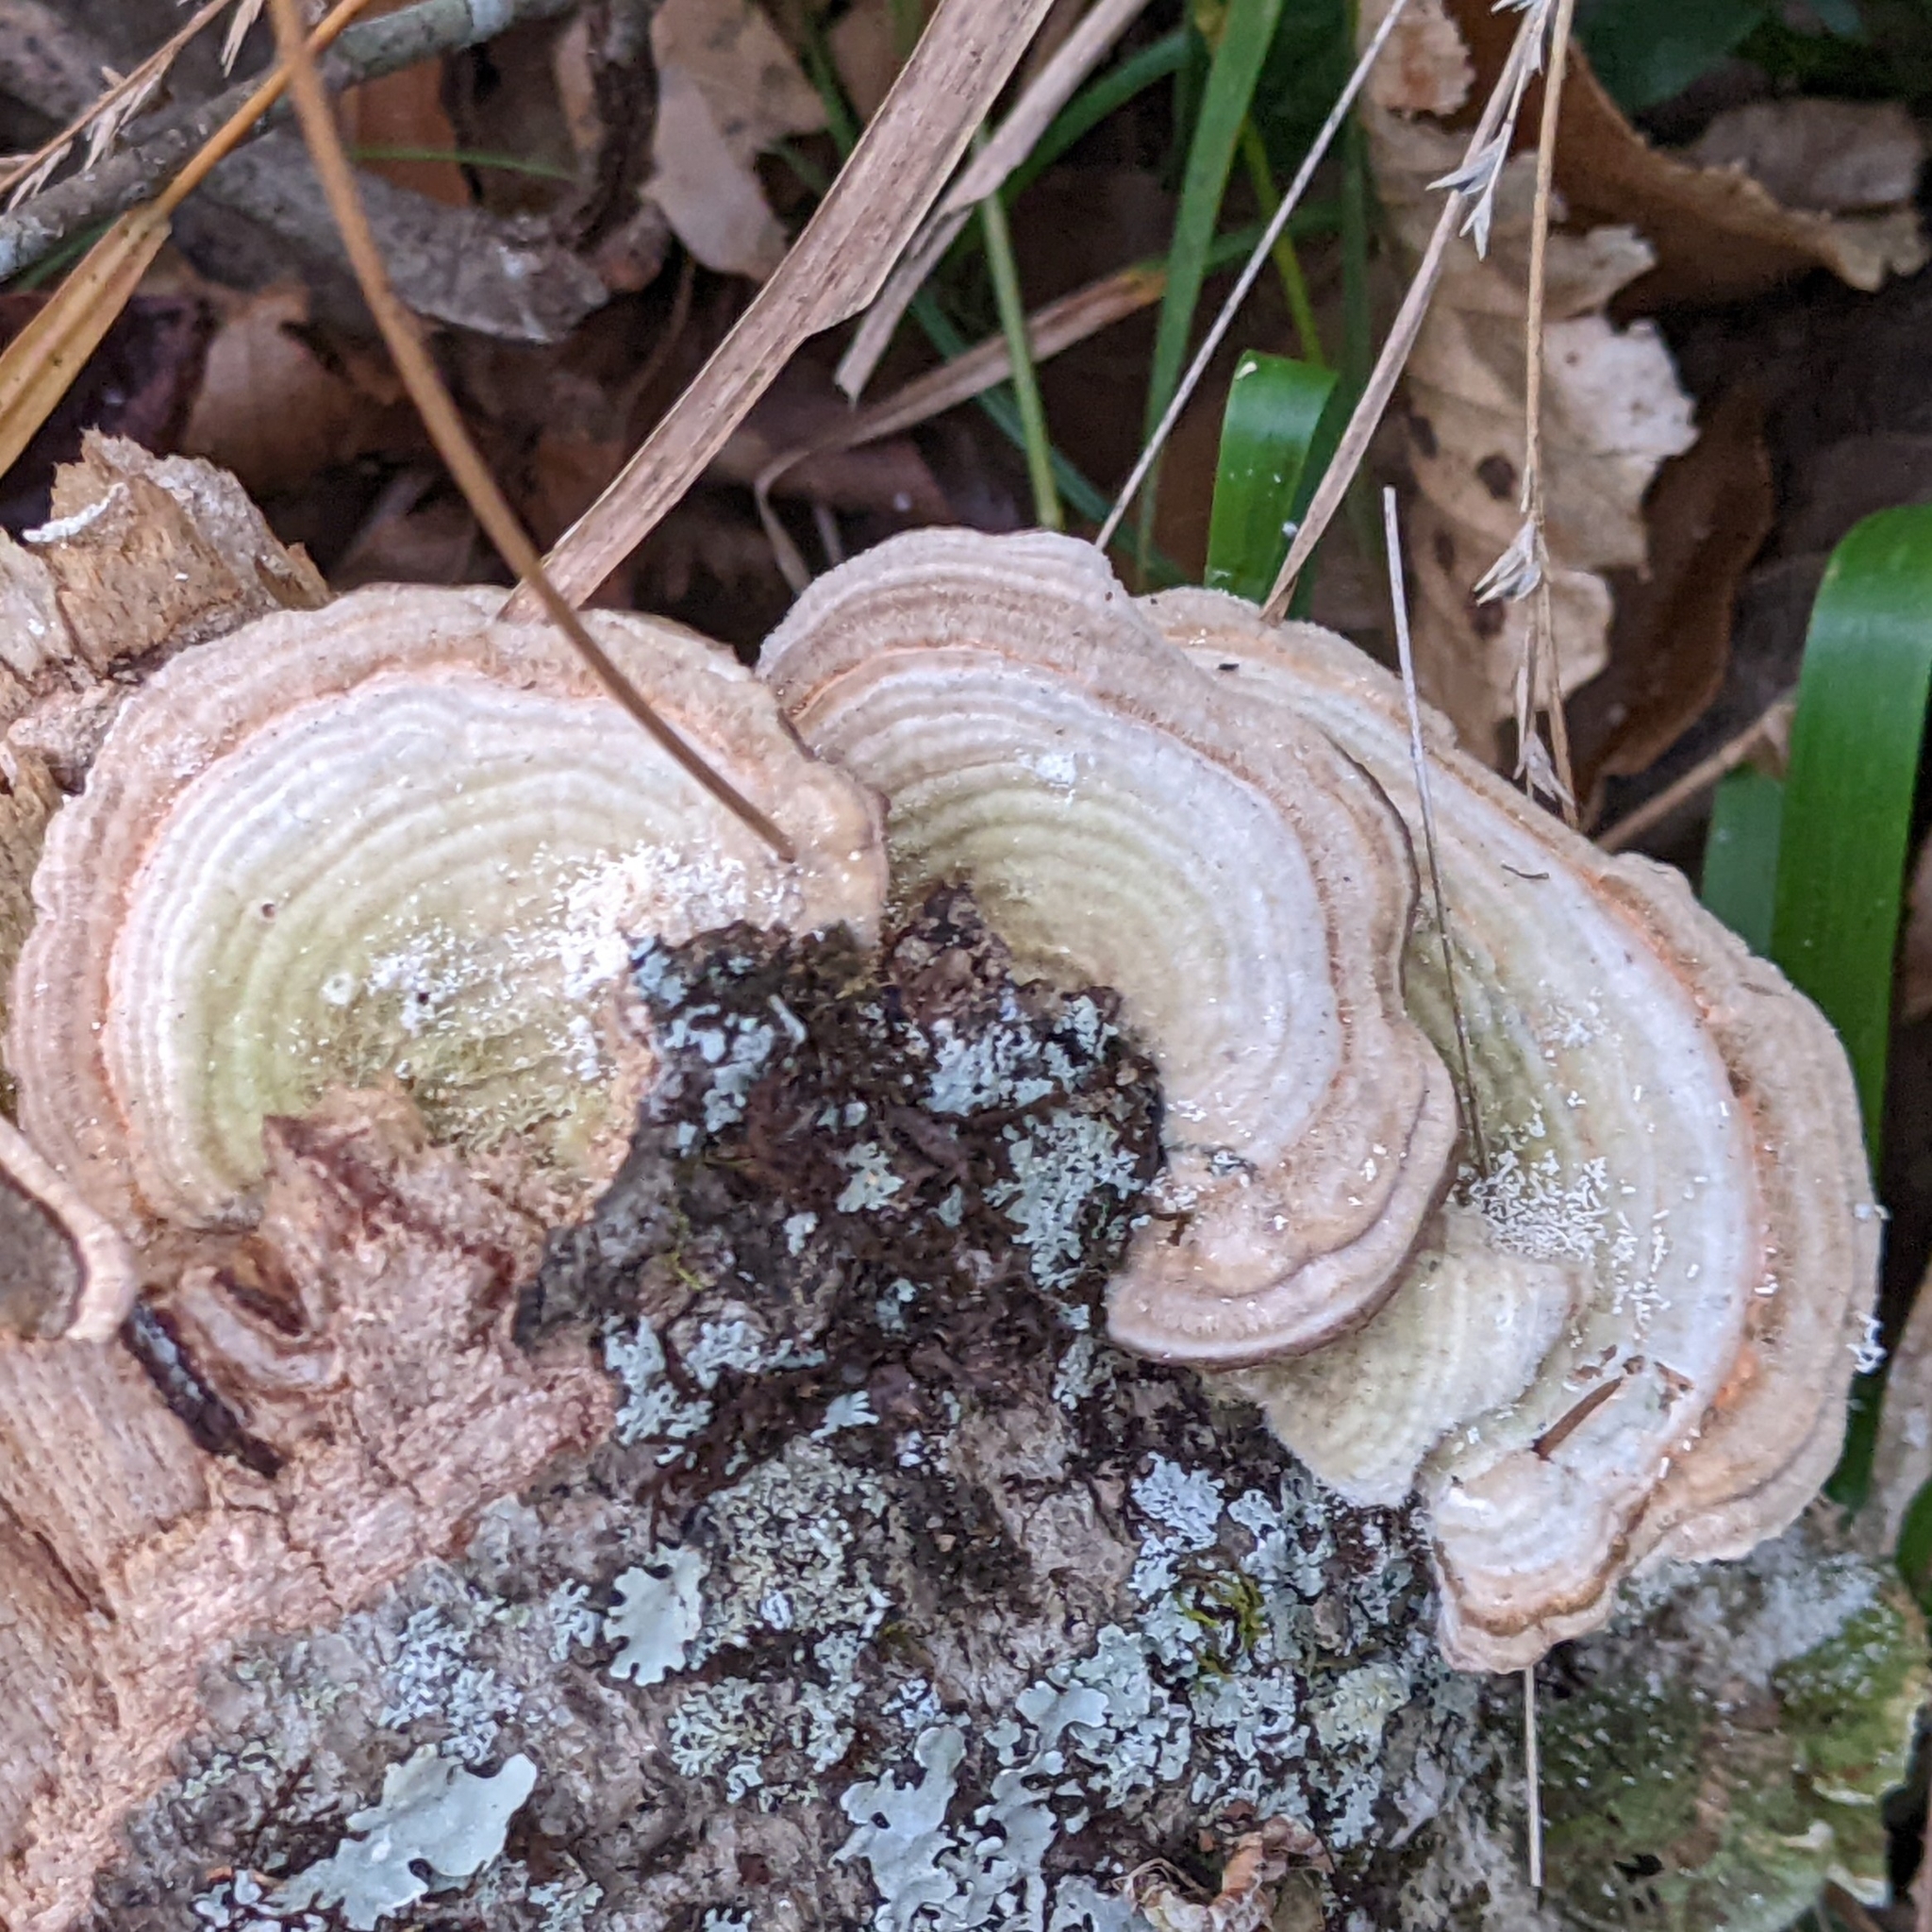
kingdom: Fungi
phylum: Basidiomycota
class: Agaricomycetes
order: Polyporales
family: Polyporaceae
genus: Lenzites
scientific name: Lenzites betulinus
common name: Birch mazegill
